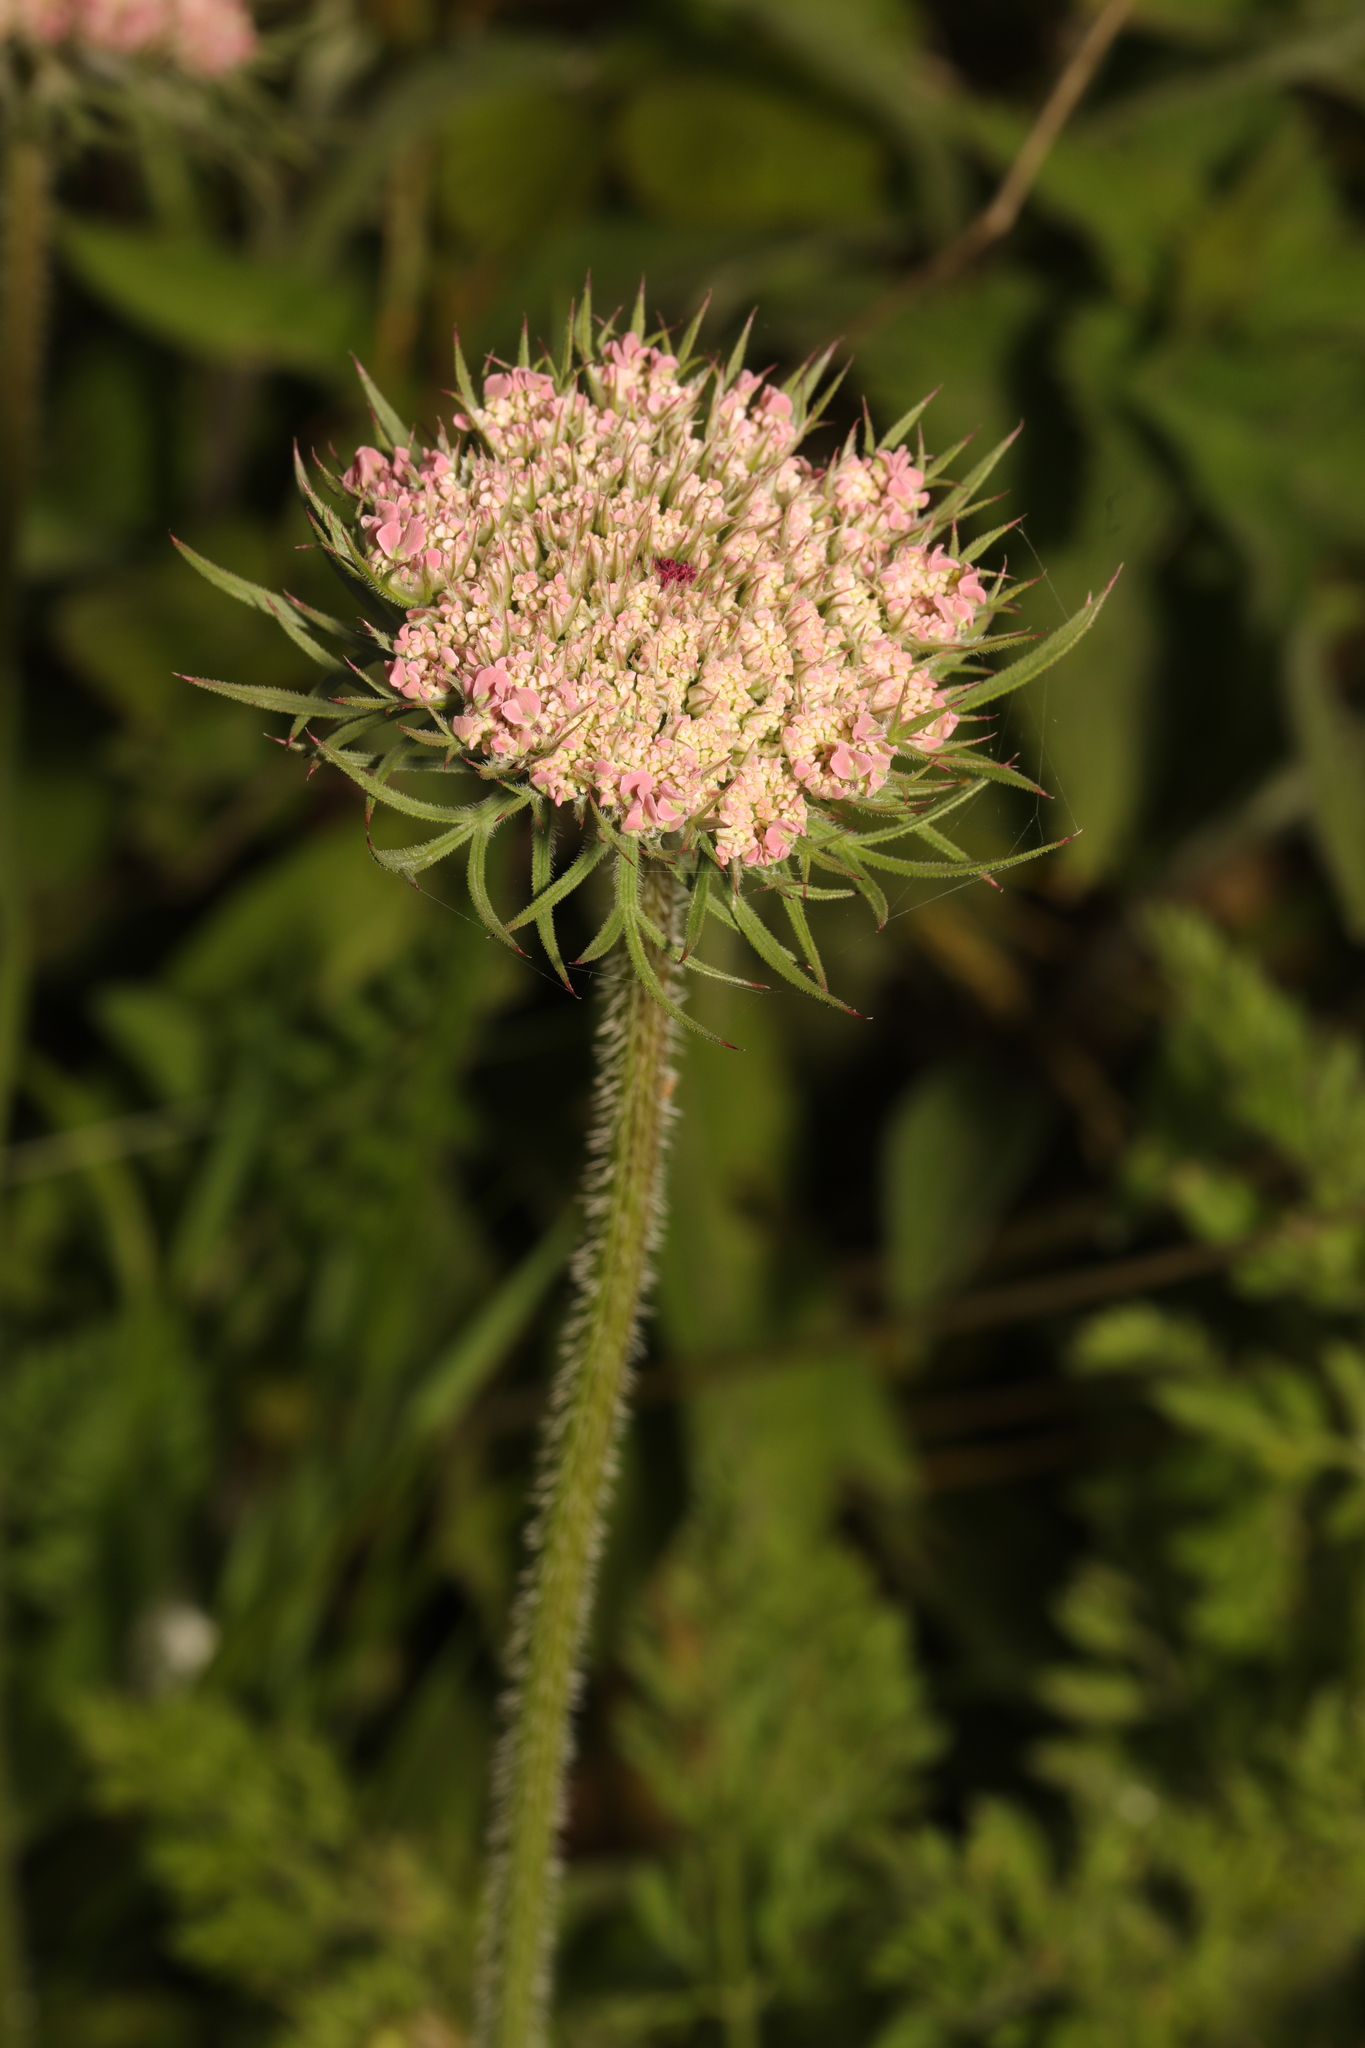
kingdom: Plantae
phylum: Tracheophyta
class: Magnoliopsida
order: Apiales
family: Apiaceae
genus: Daucus
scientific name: Daucus carota
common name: Wild carrot
